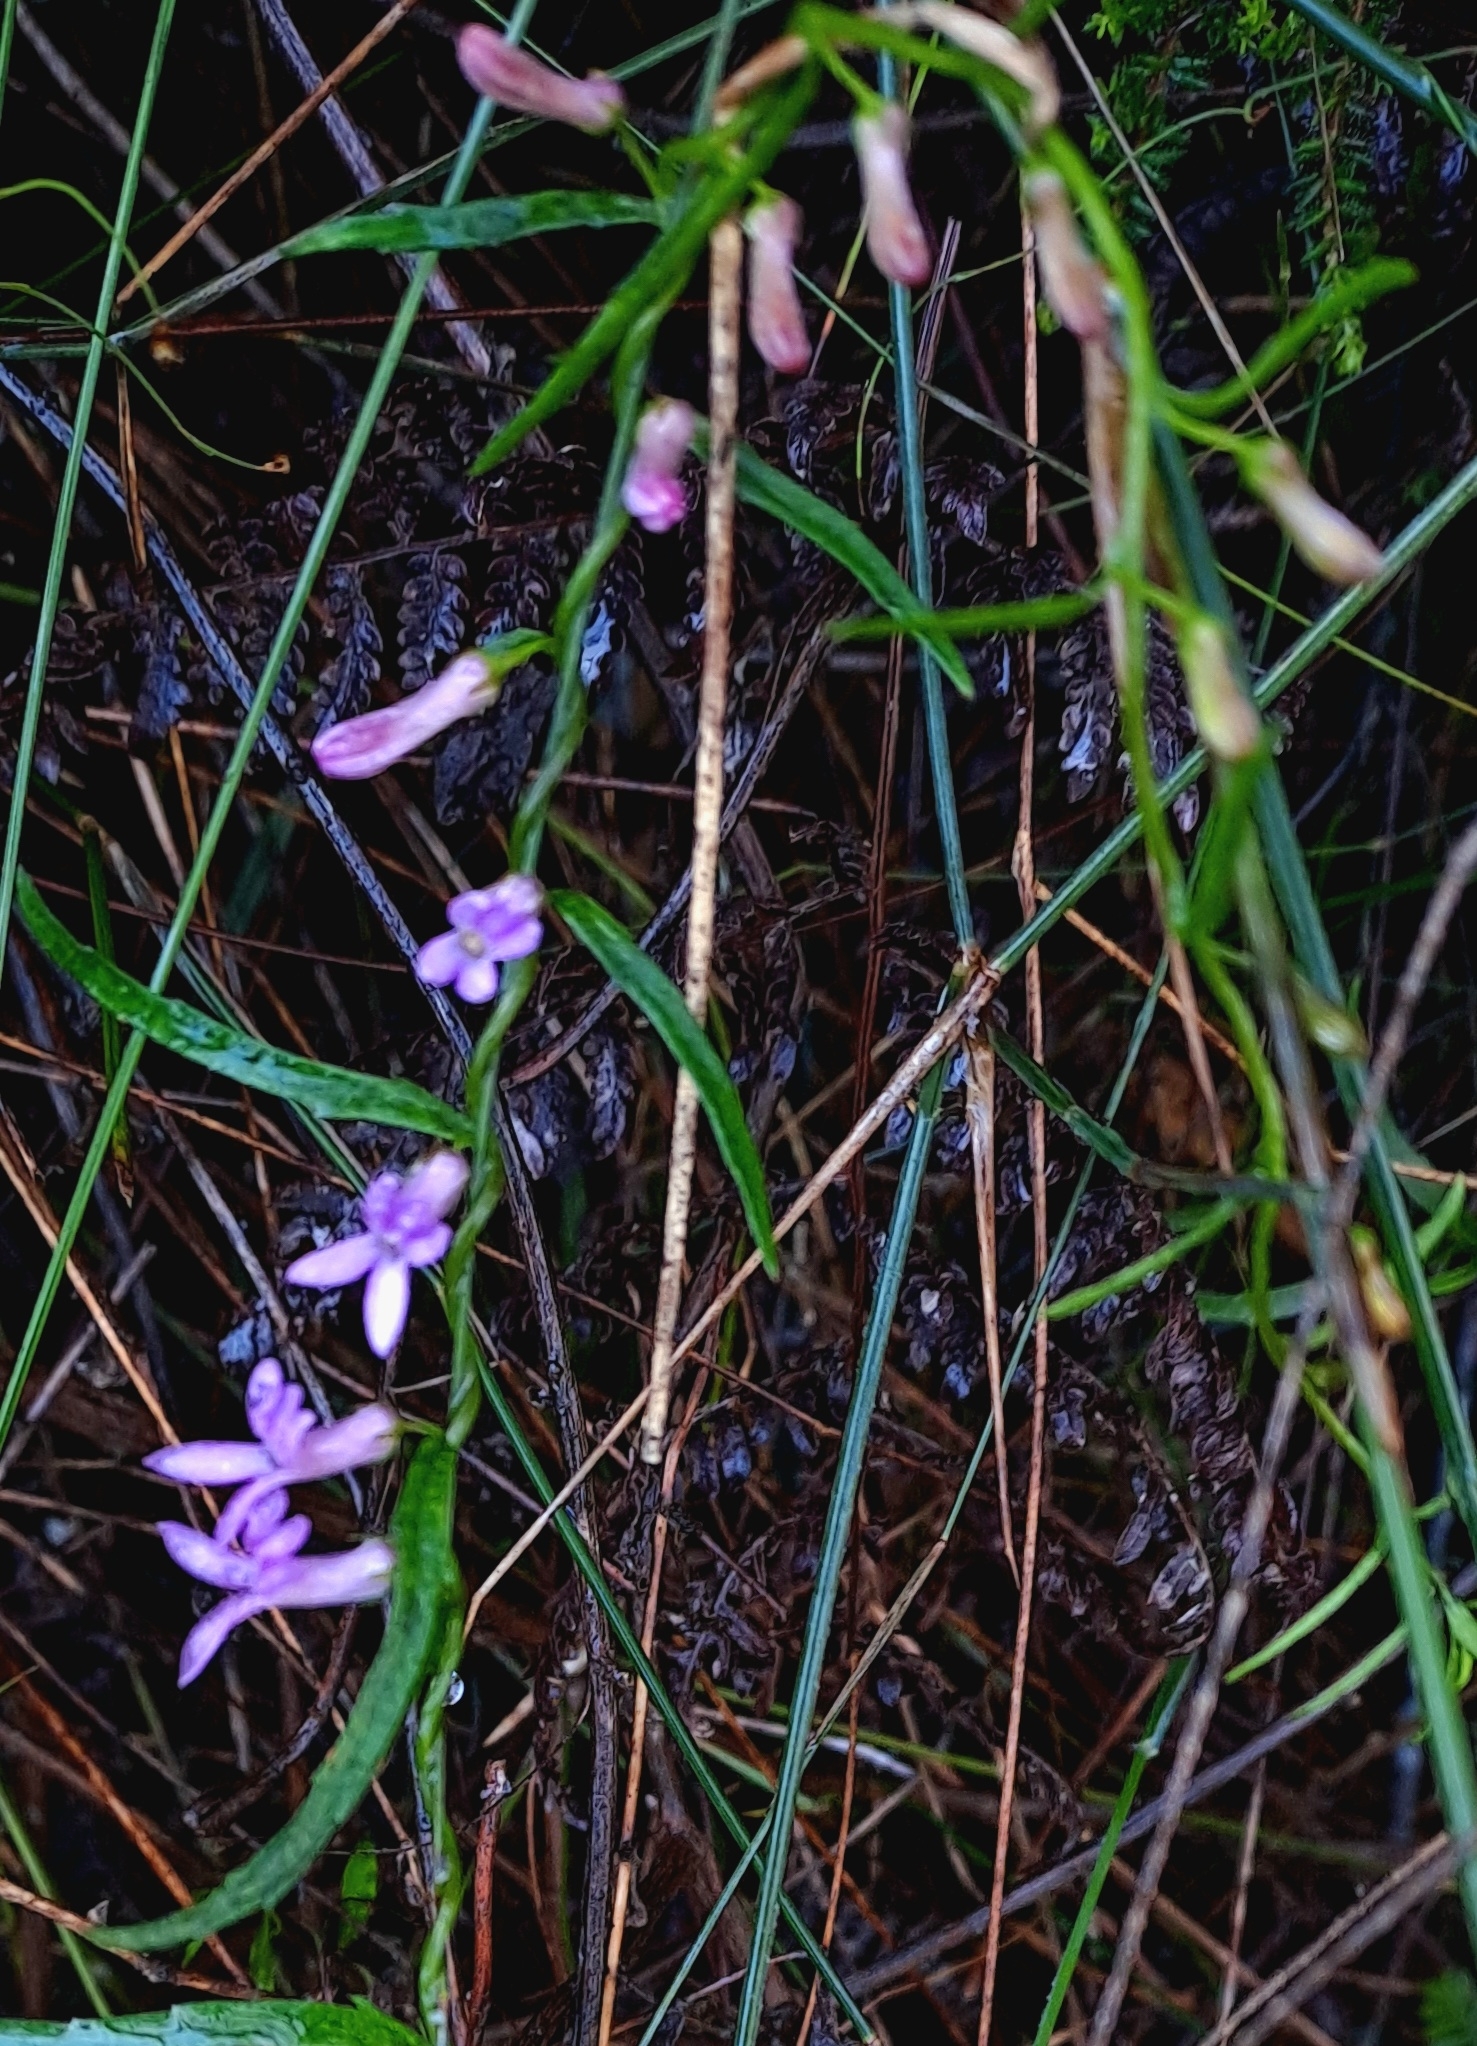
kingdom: Plantae
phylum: Tracheophyta
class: Magnoliopsida
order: Asterales
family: Campanulaceae
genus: Cyphia
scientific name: Cyphia sylvatica
